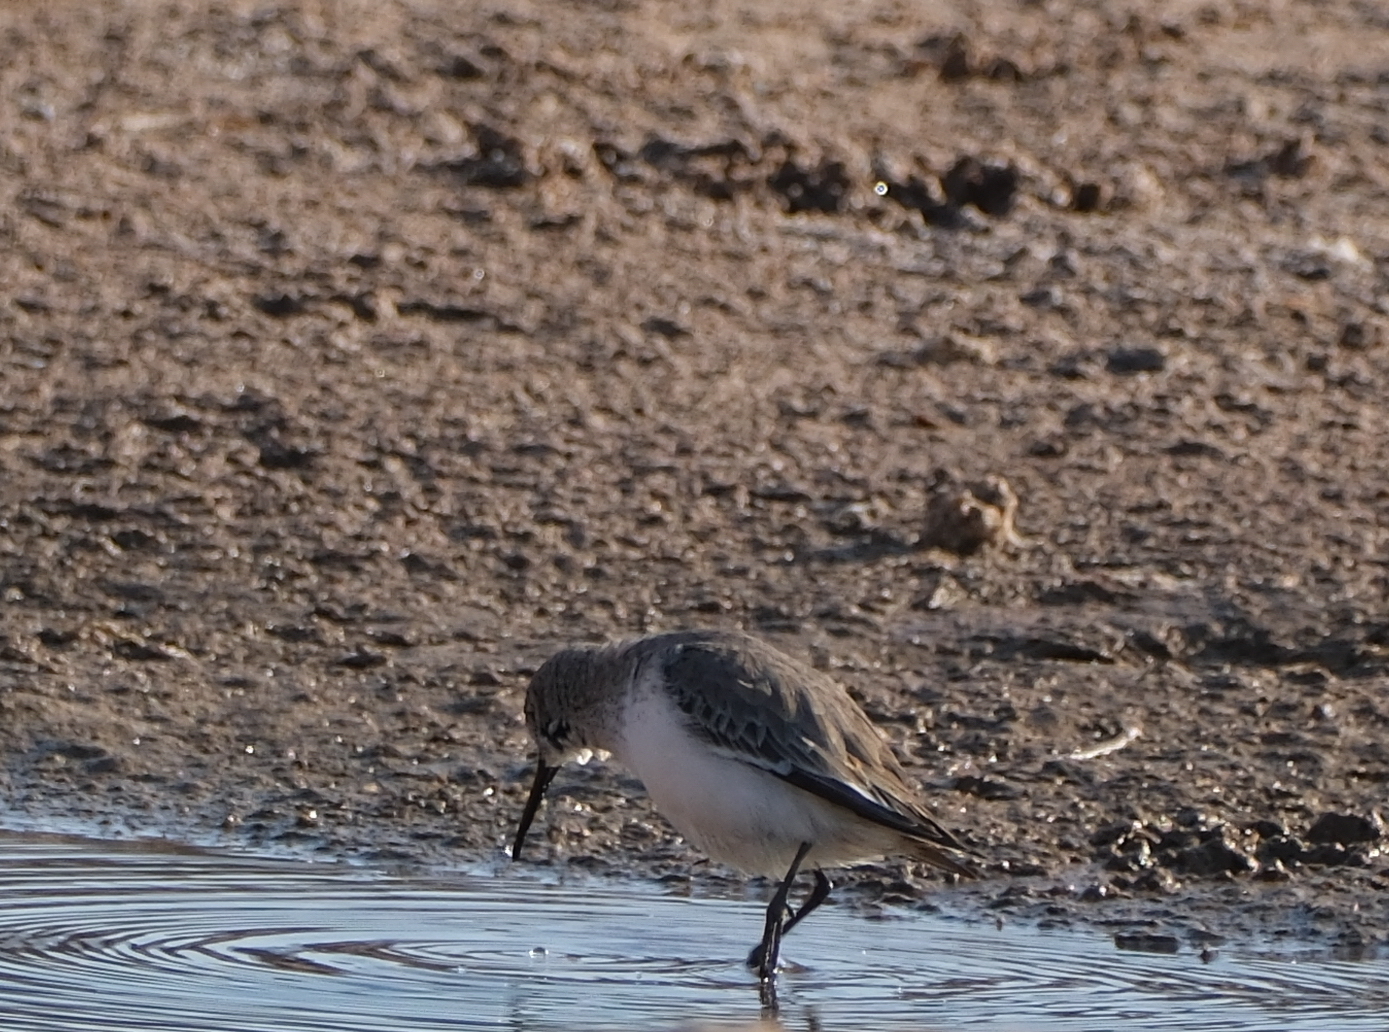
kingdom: Animalia
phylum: Chordata
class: Aves
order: Charadriiformes
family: Scolopacidae
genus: Calidris
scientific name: Calidris alpina
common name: Dunlin
